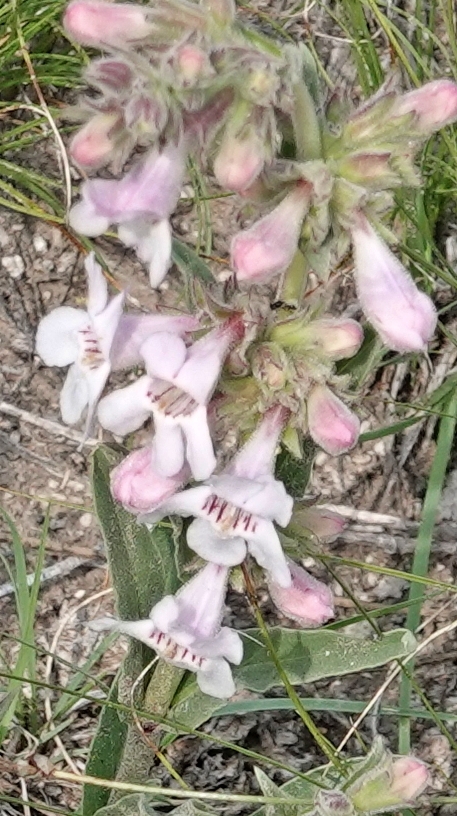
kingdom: Plantae
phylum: Tracheophyta
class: Magnoliopsida
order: Lamiales
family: Plantaginaceae
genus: Penstemon
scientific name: Penstemon albidus
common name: White beardtongue
